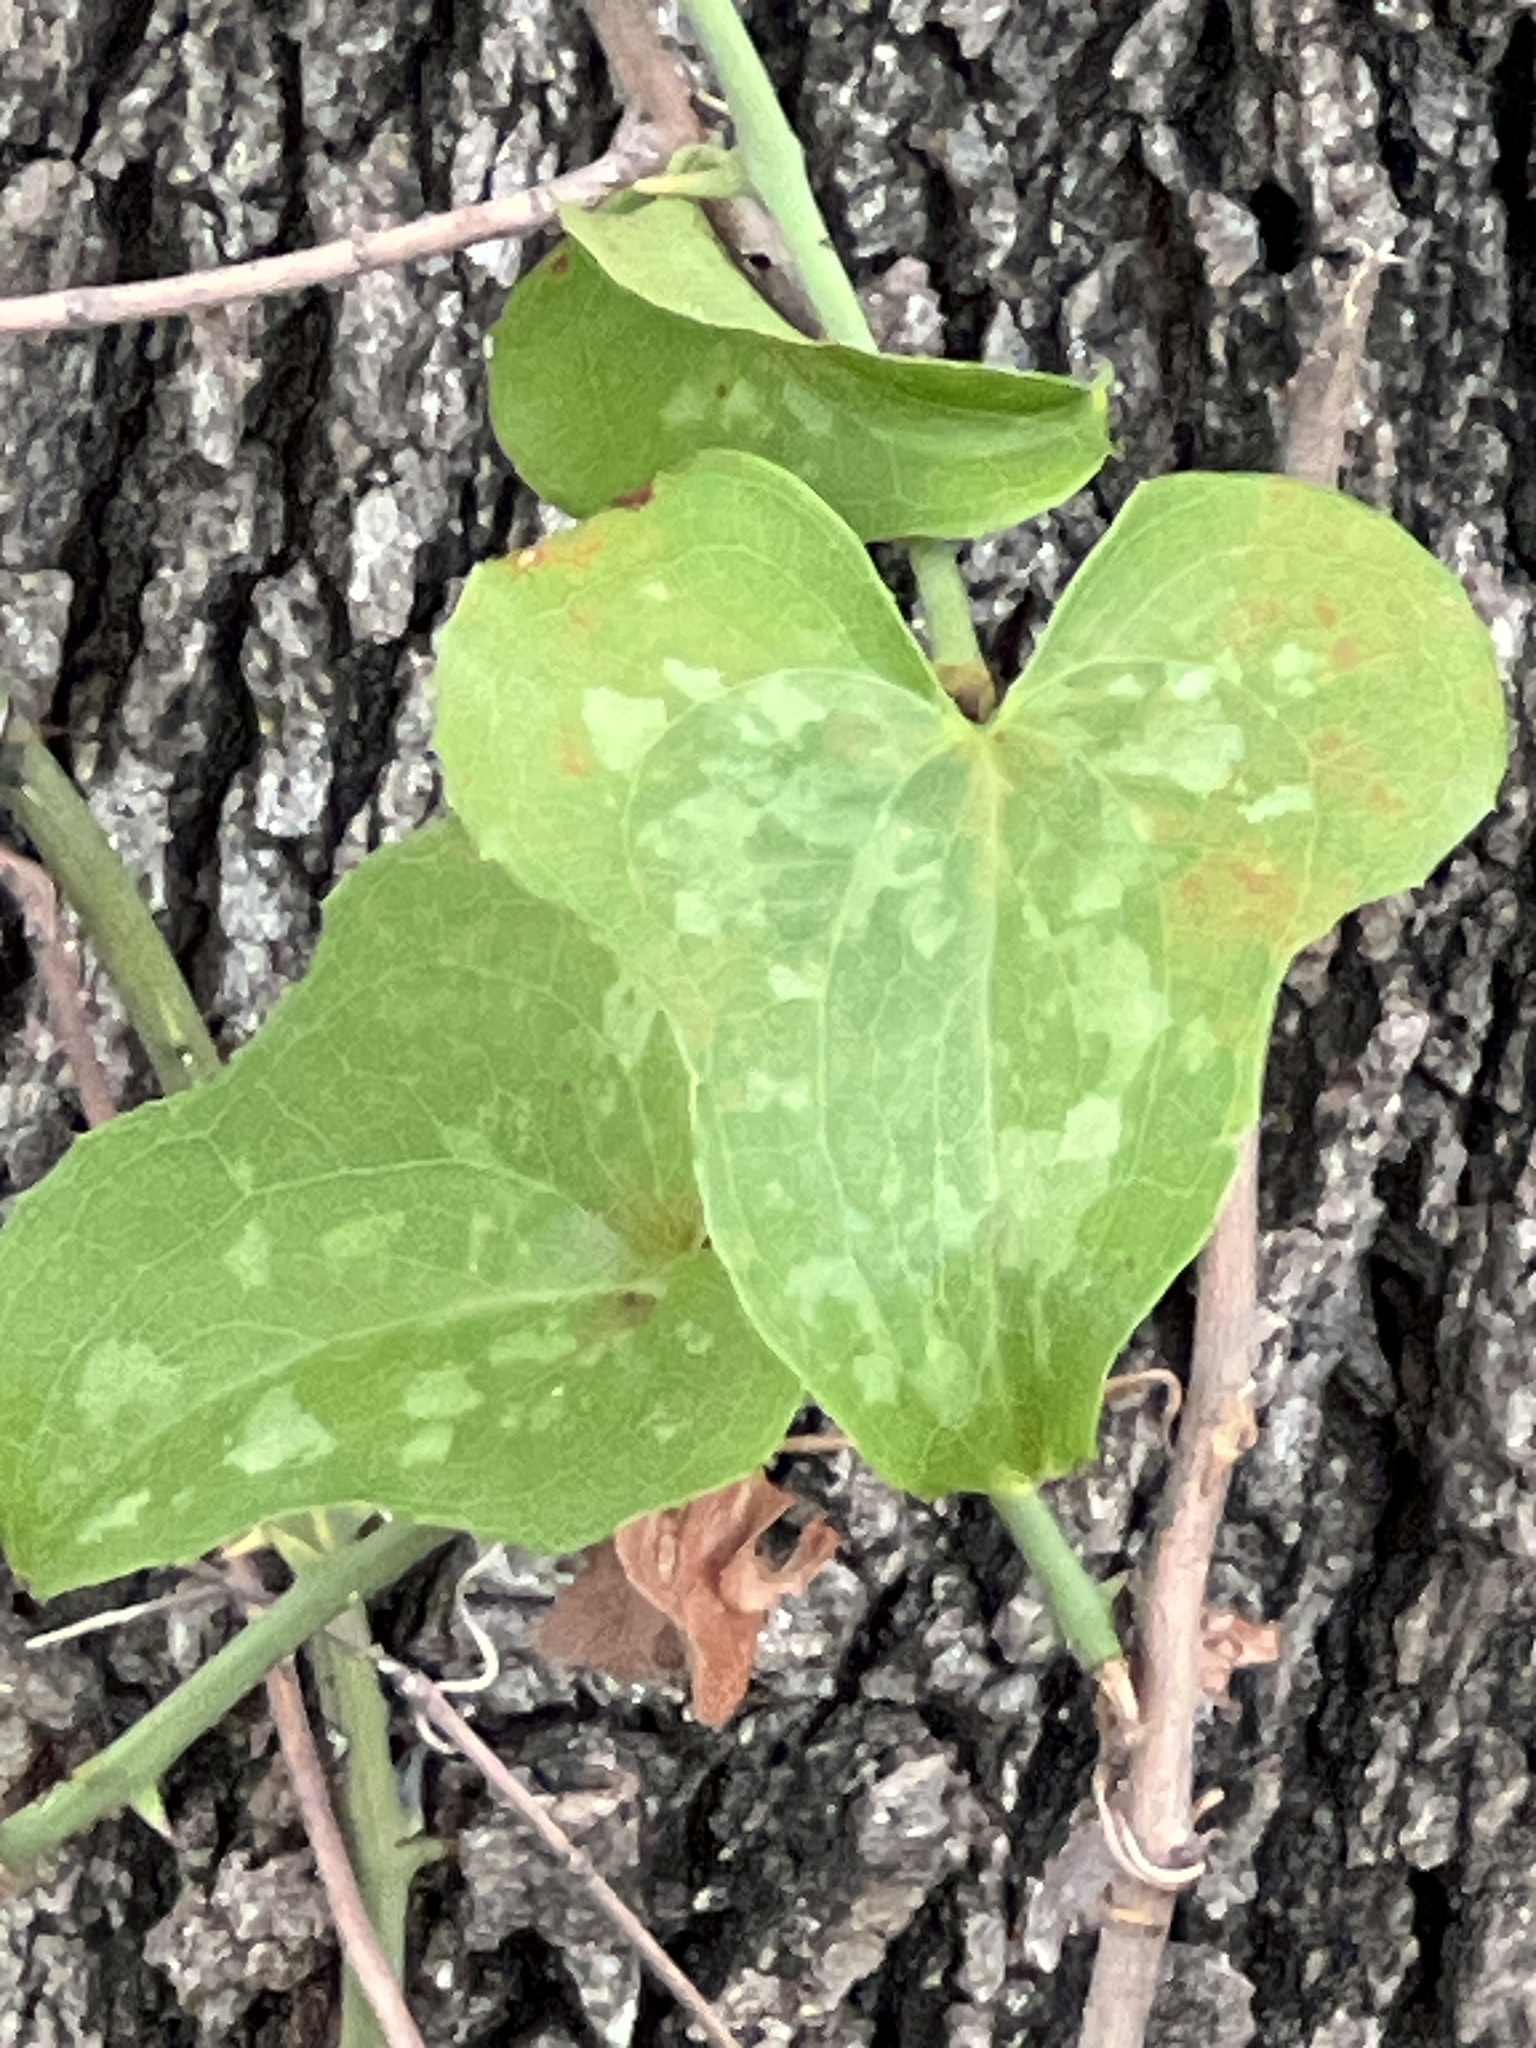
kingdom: Plantae
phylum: Tracheophyta
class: Liliopsida
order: Liliales
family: Smilacaceae
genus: Smilax
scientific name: Smilax bona-nox
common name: Catbrier
